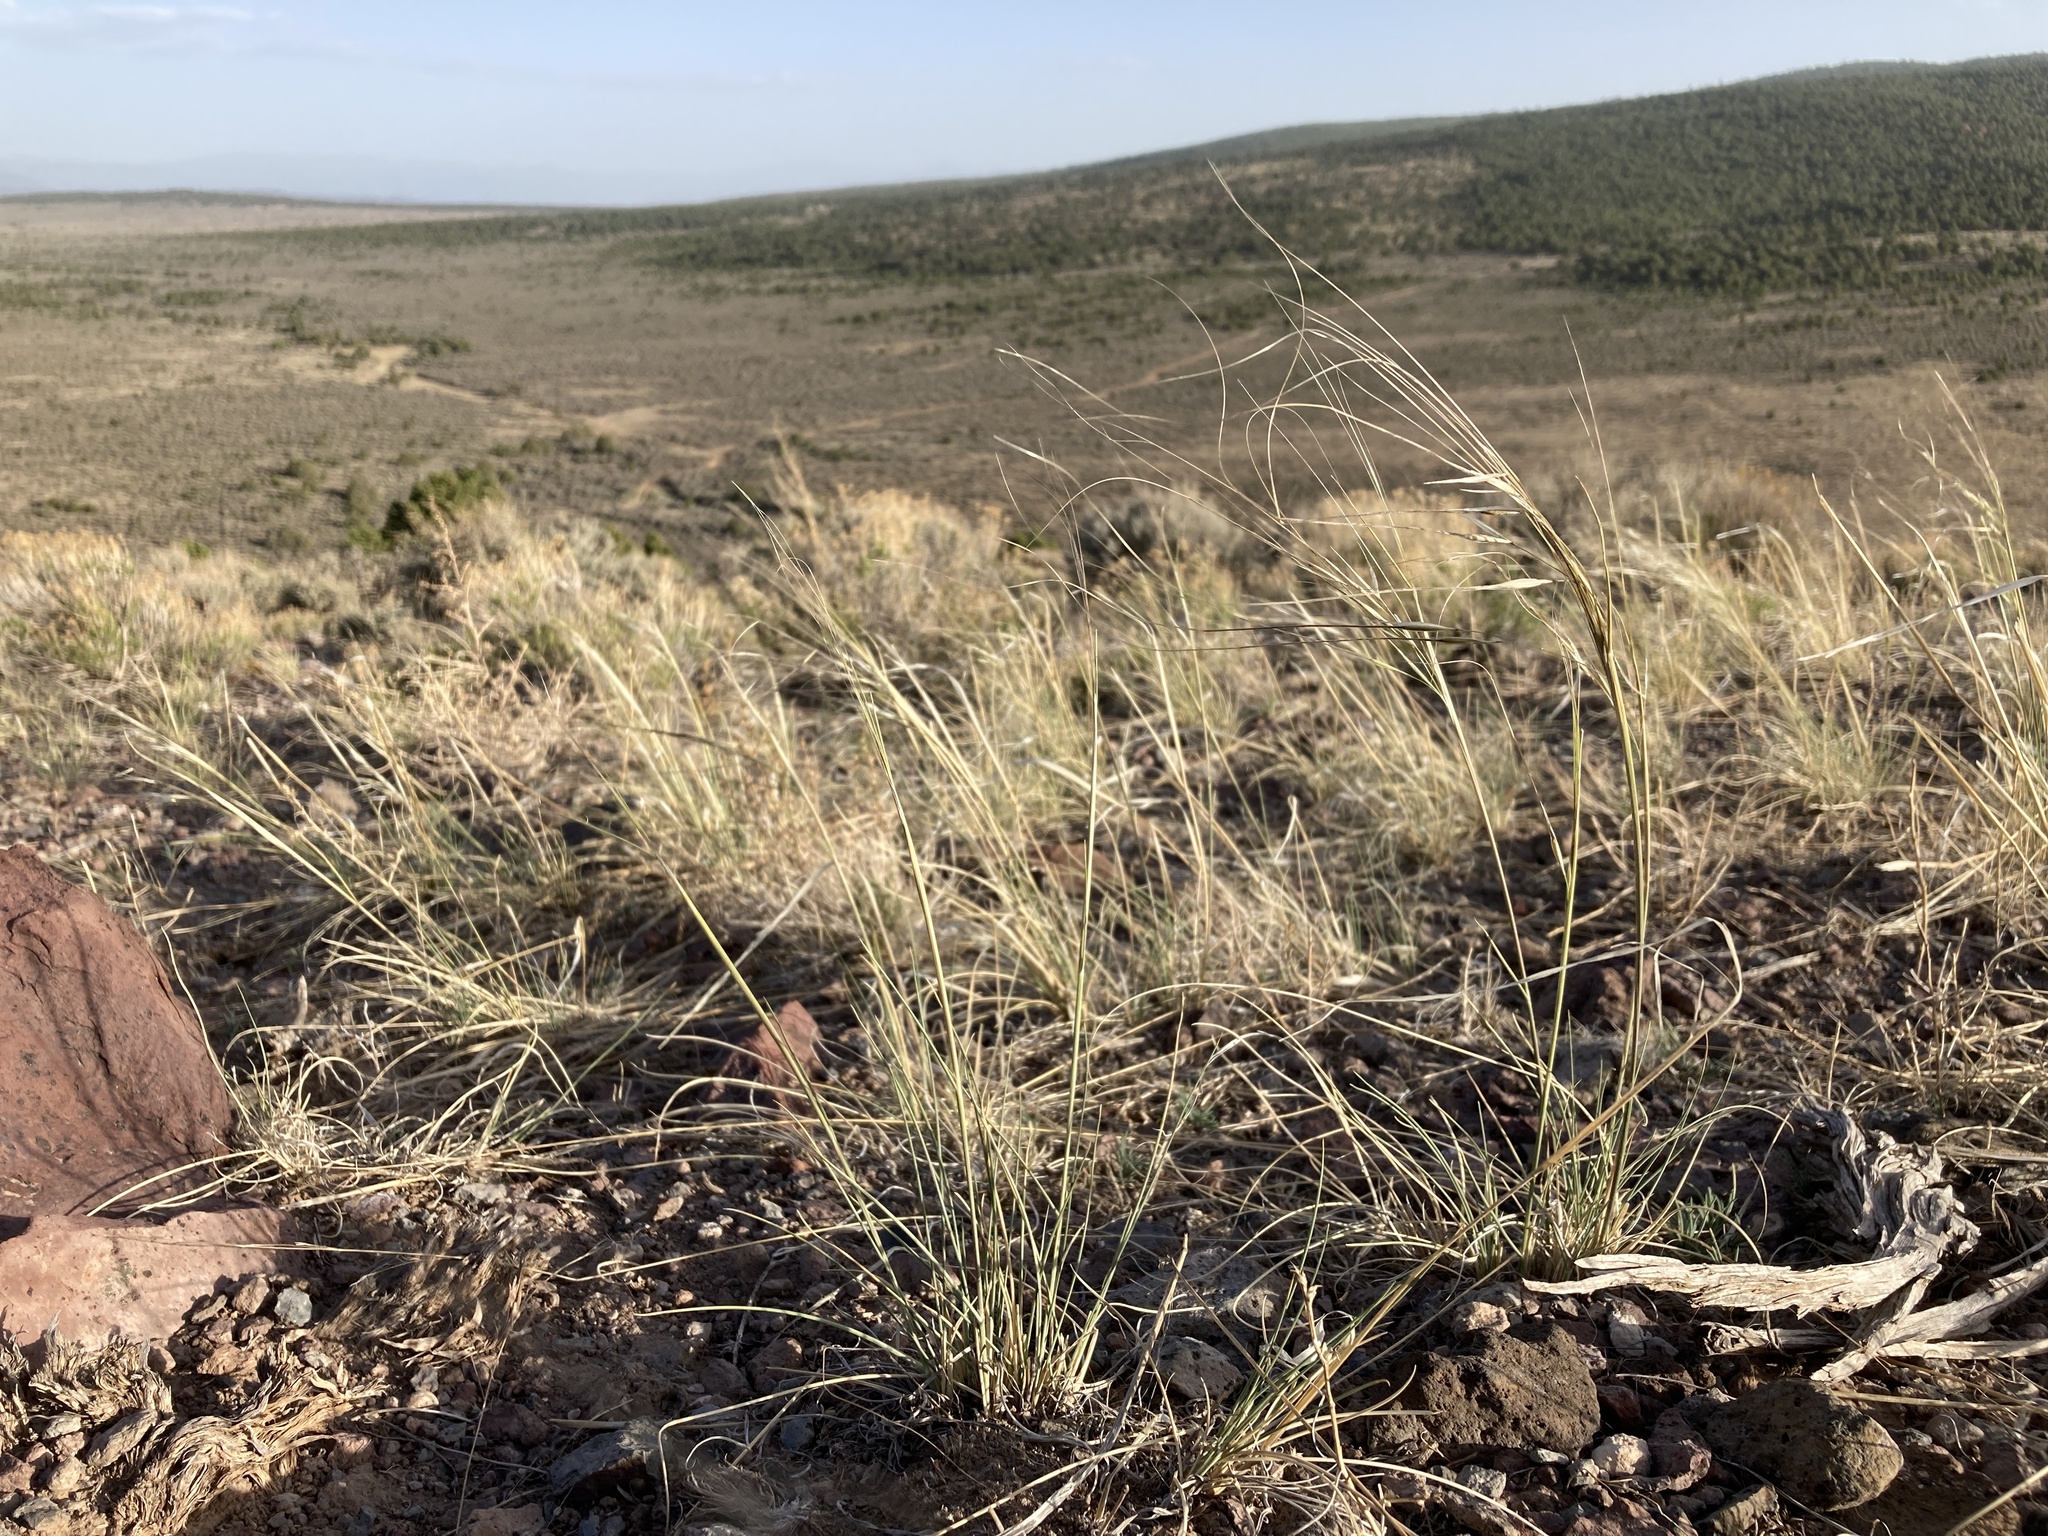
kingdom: Plantae
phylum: Tracheophyta
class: Liliopsida
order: Poales
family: Poaceae
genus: Hesperostipa
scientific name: Hesperostipa comata
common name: Needle-and-thread grass
